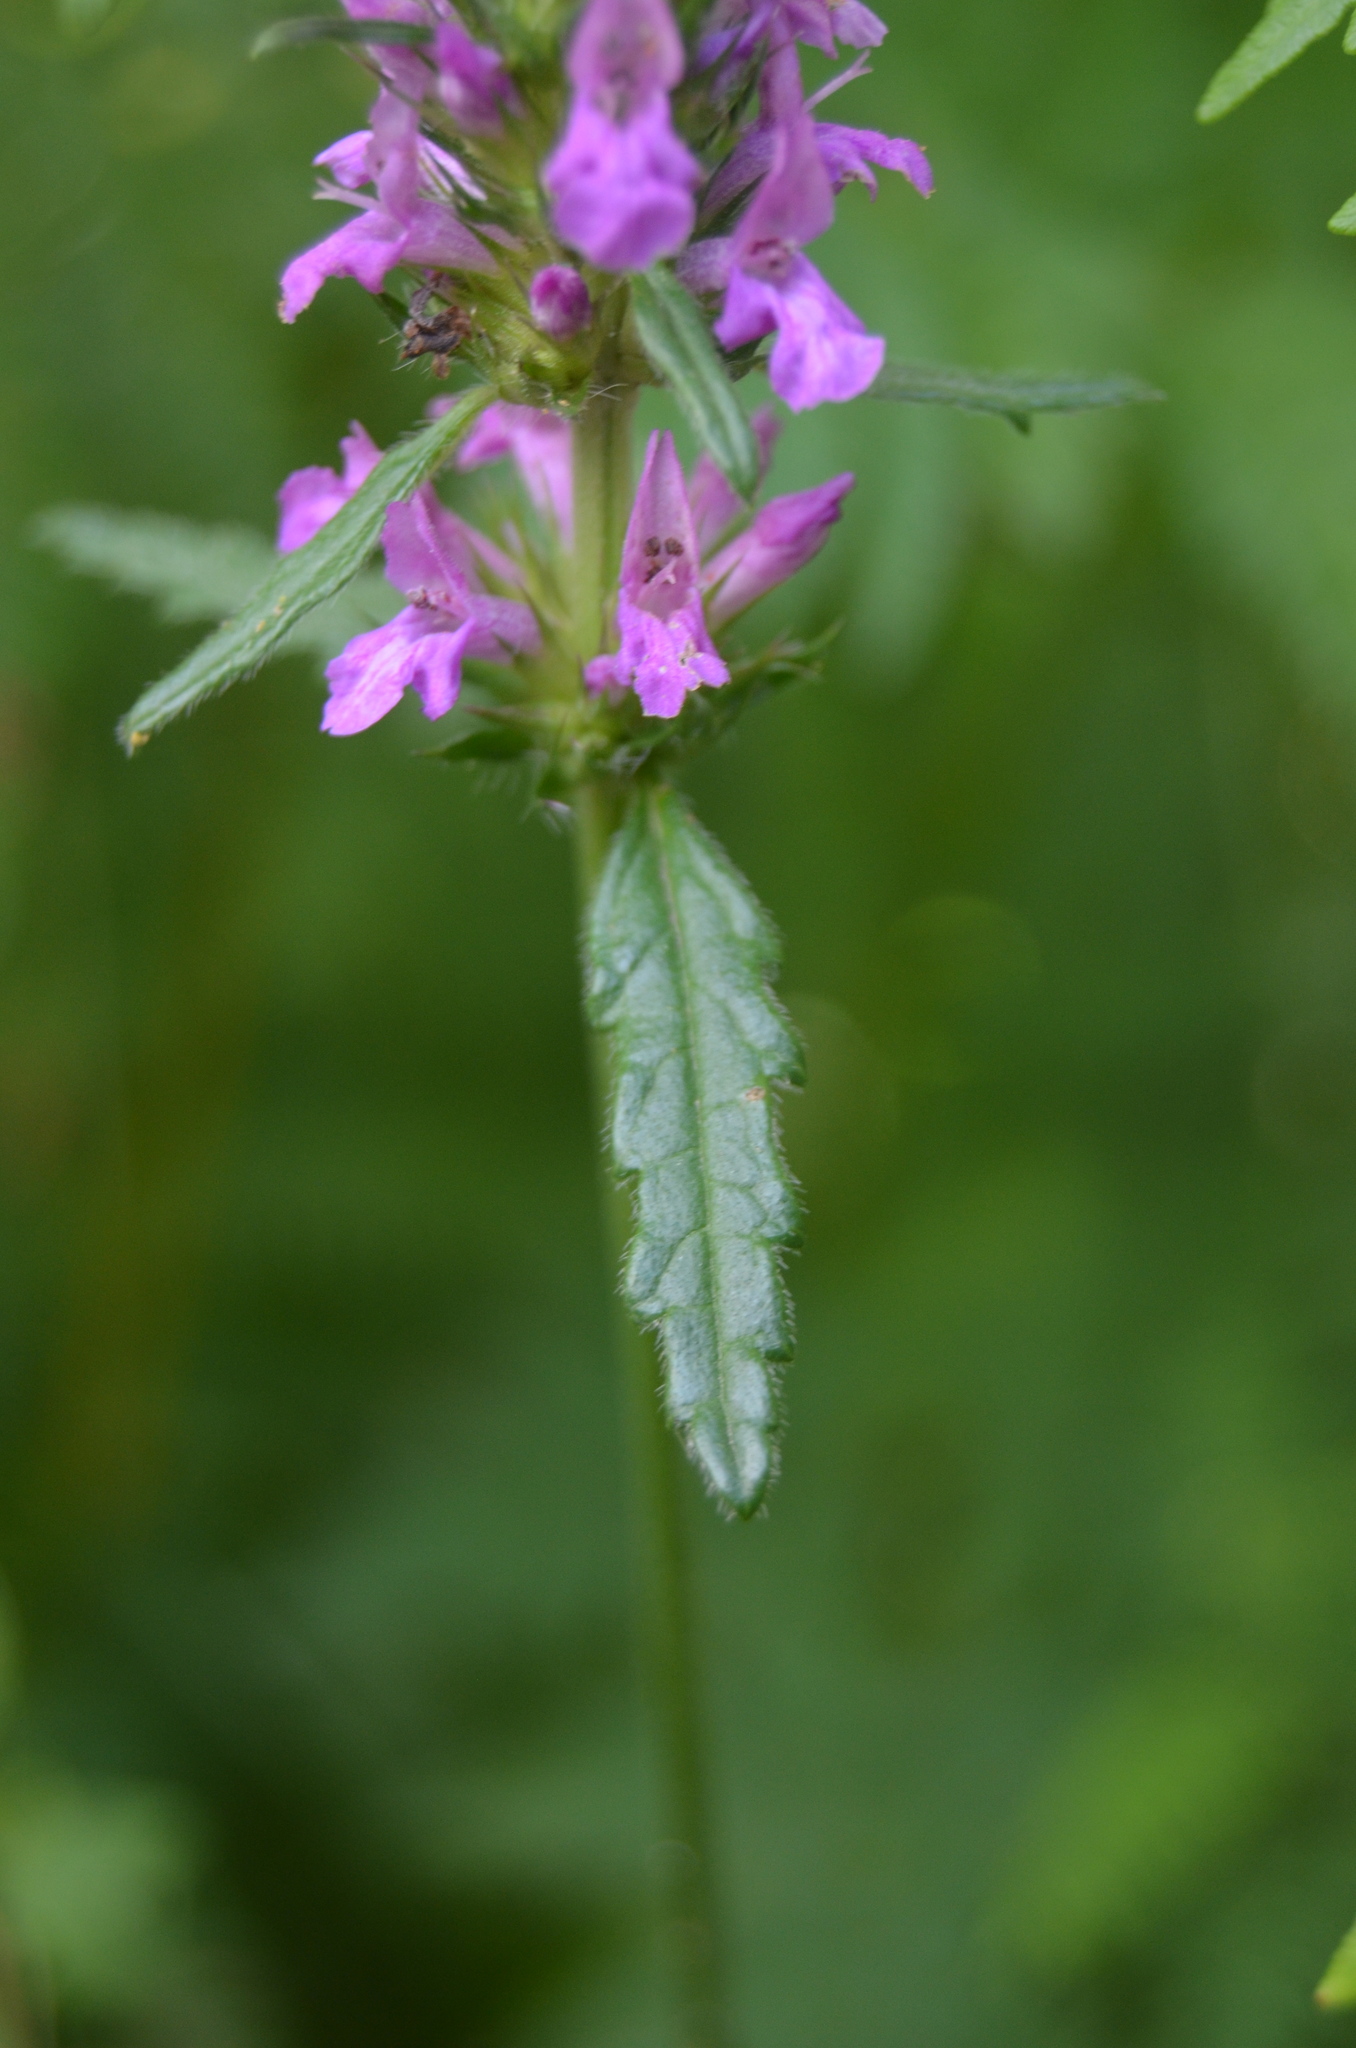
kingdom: Plantae
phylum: Tracheophyta
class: Magnoliopsida
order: Lamiales
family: Lamiaceae
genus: Betonica
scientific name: Betonica officinalis
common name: Bishop's-wort
